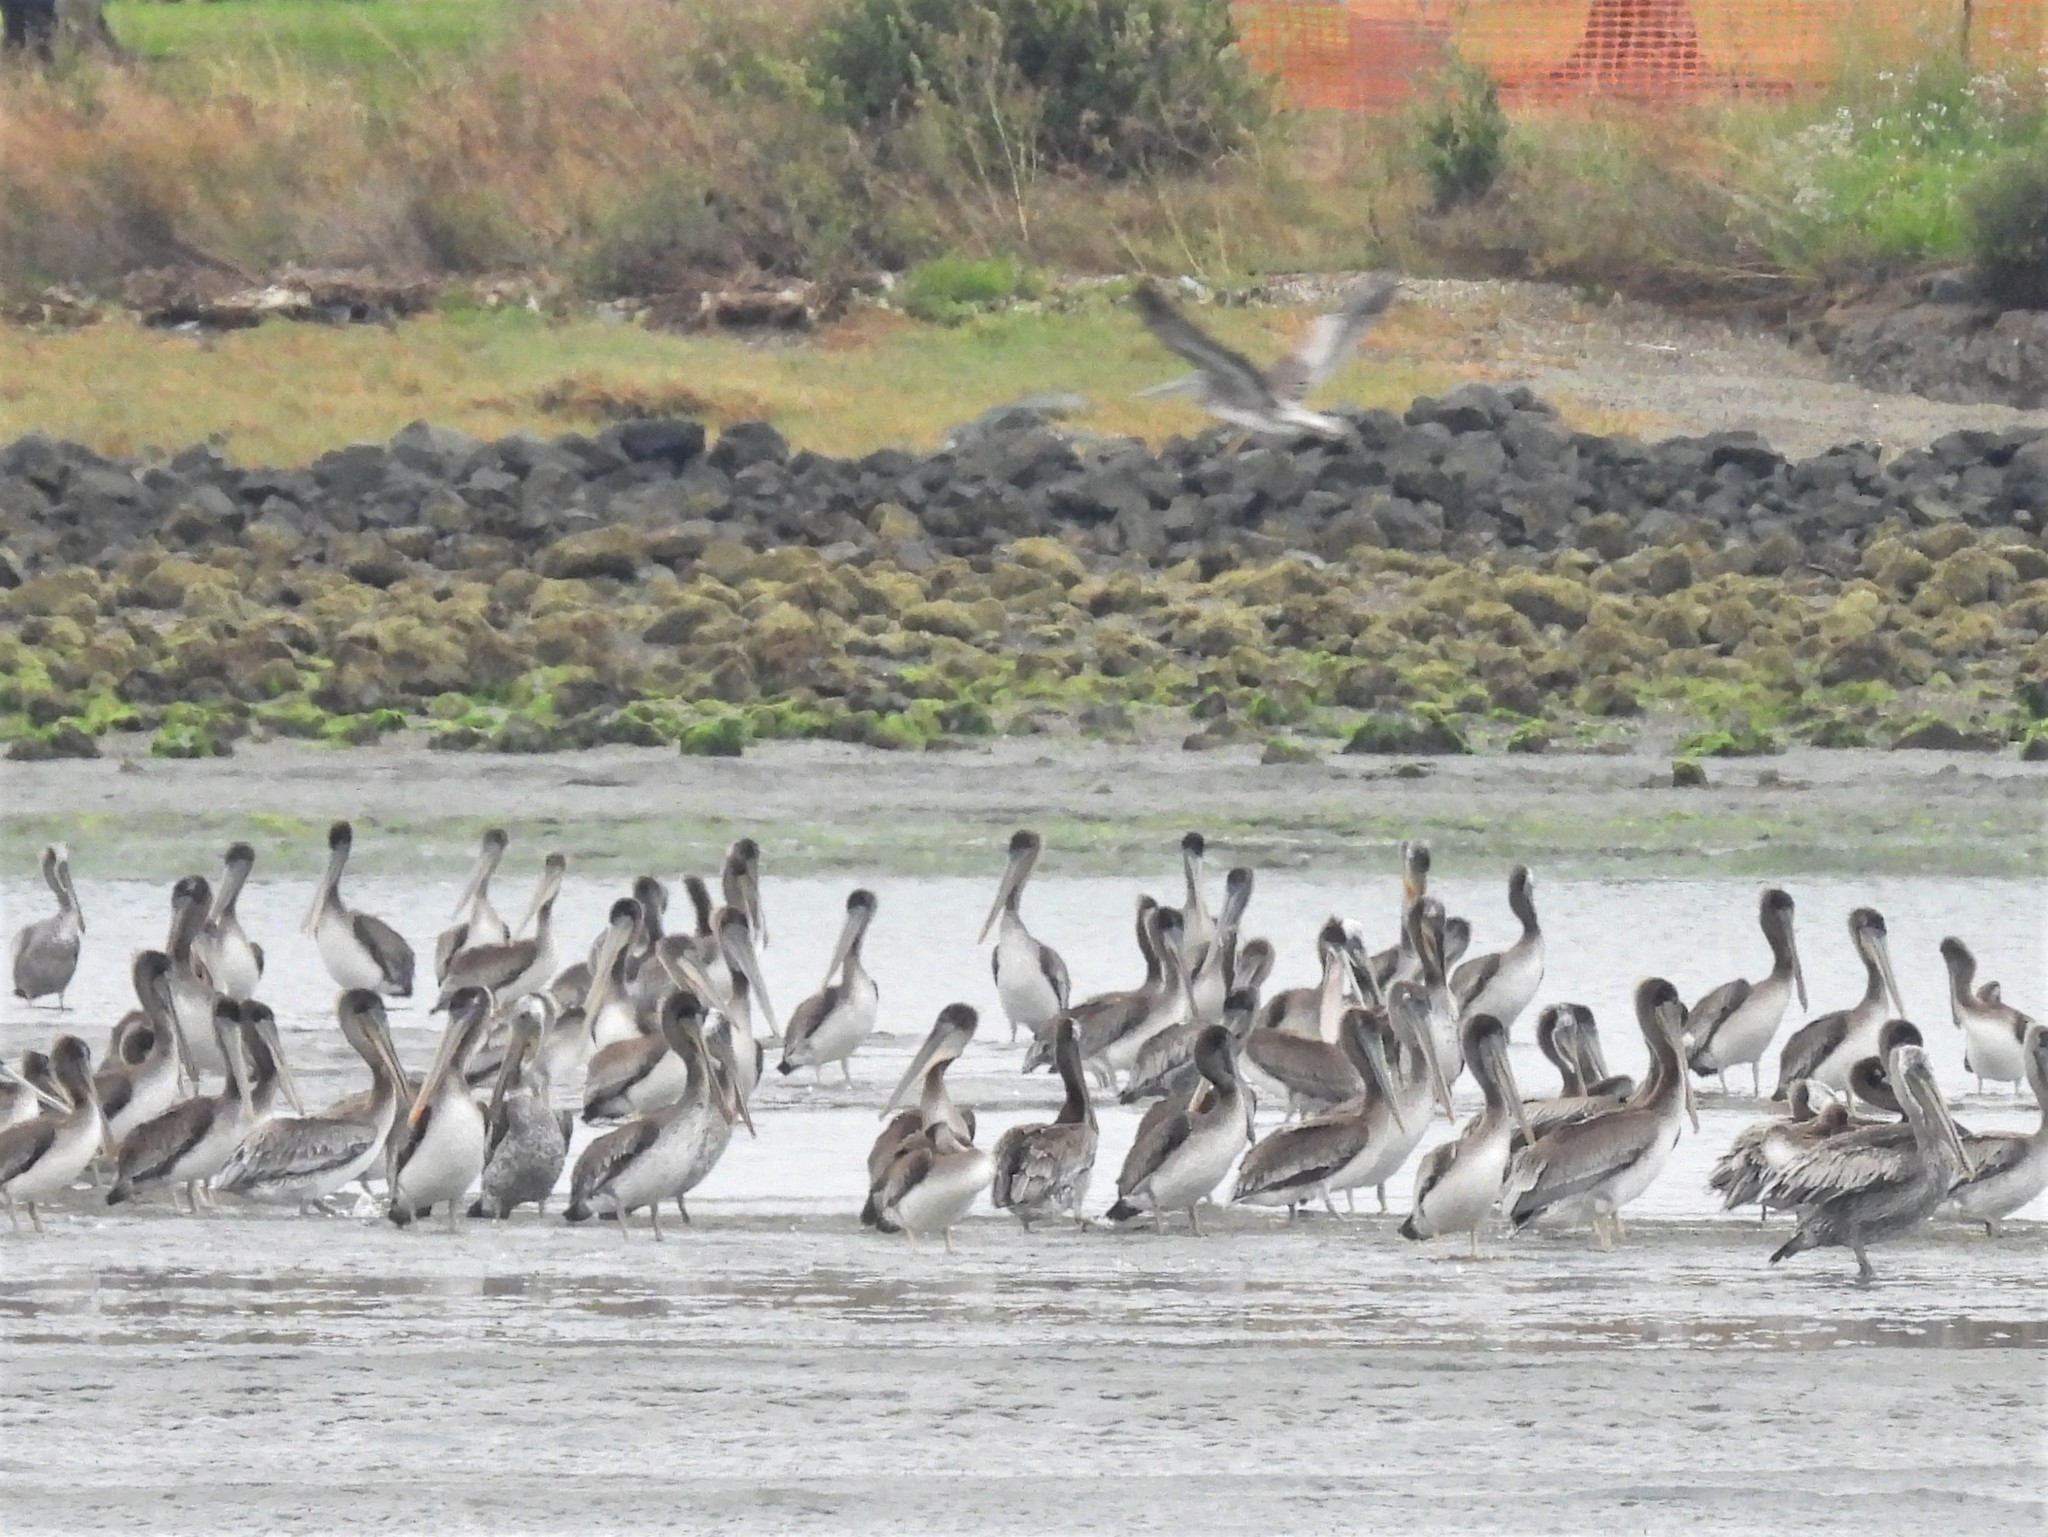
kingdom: Animalia
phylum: Chordata
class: Aves
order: Pelecaniformes
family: Pelecanidae
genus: Pelecanus
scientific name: Pelecanus occidentalis
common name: Brown pelican
